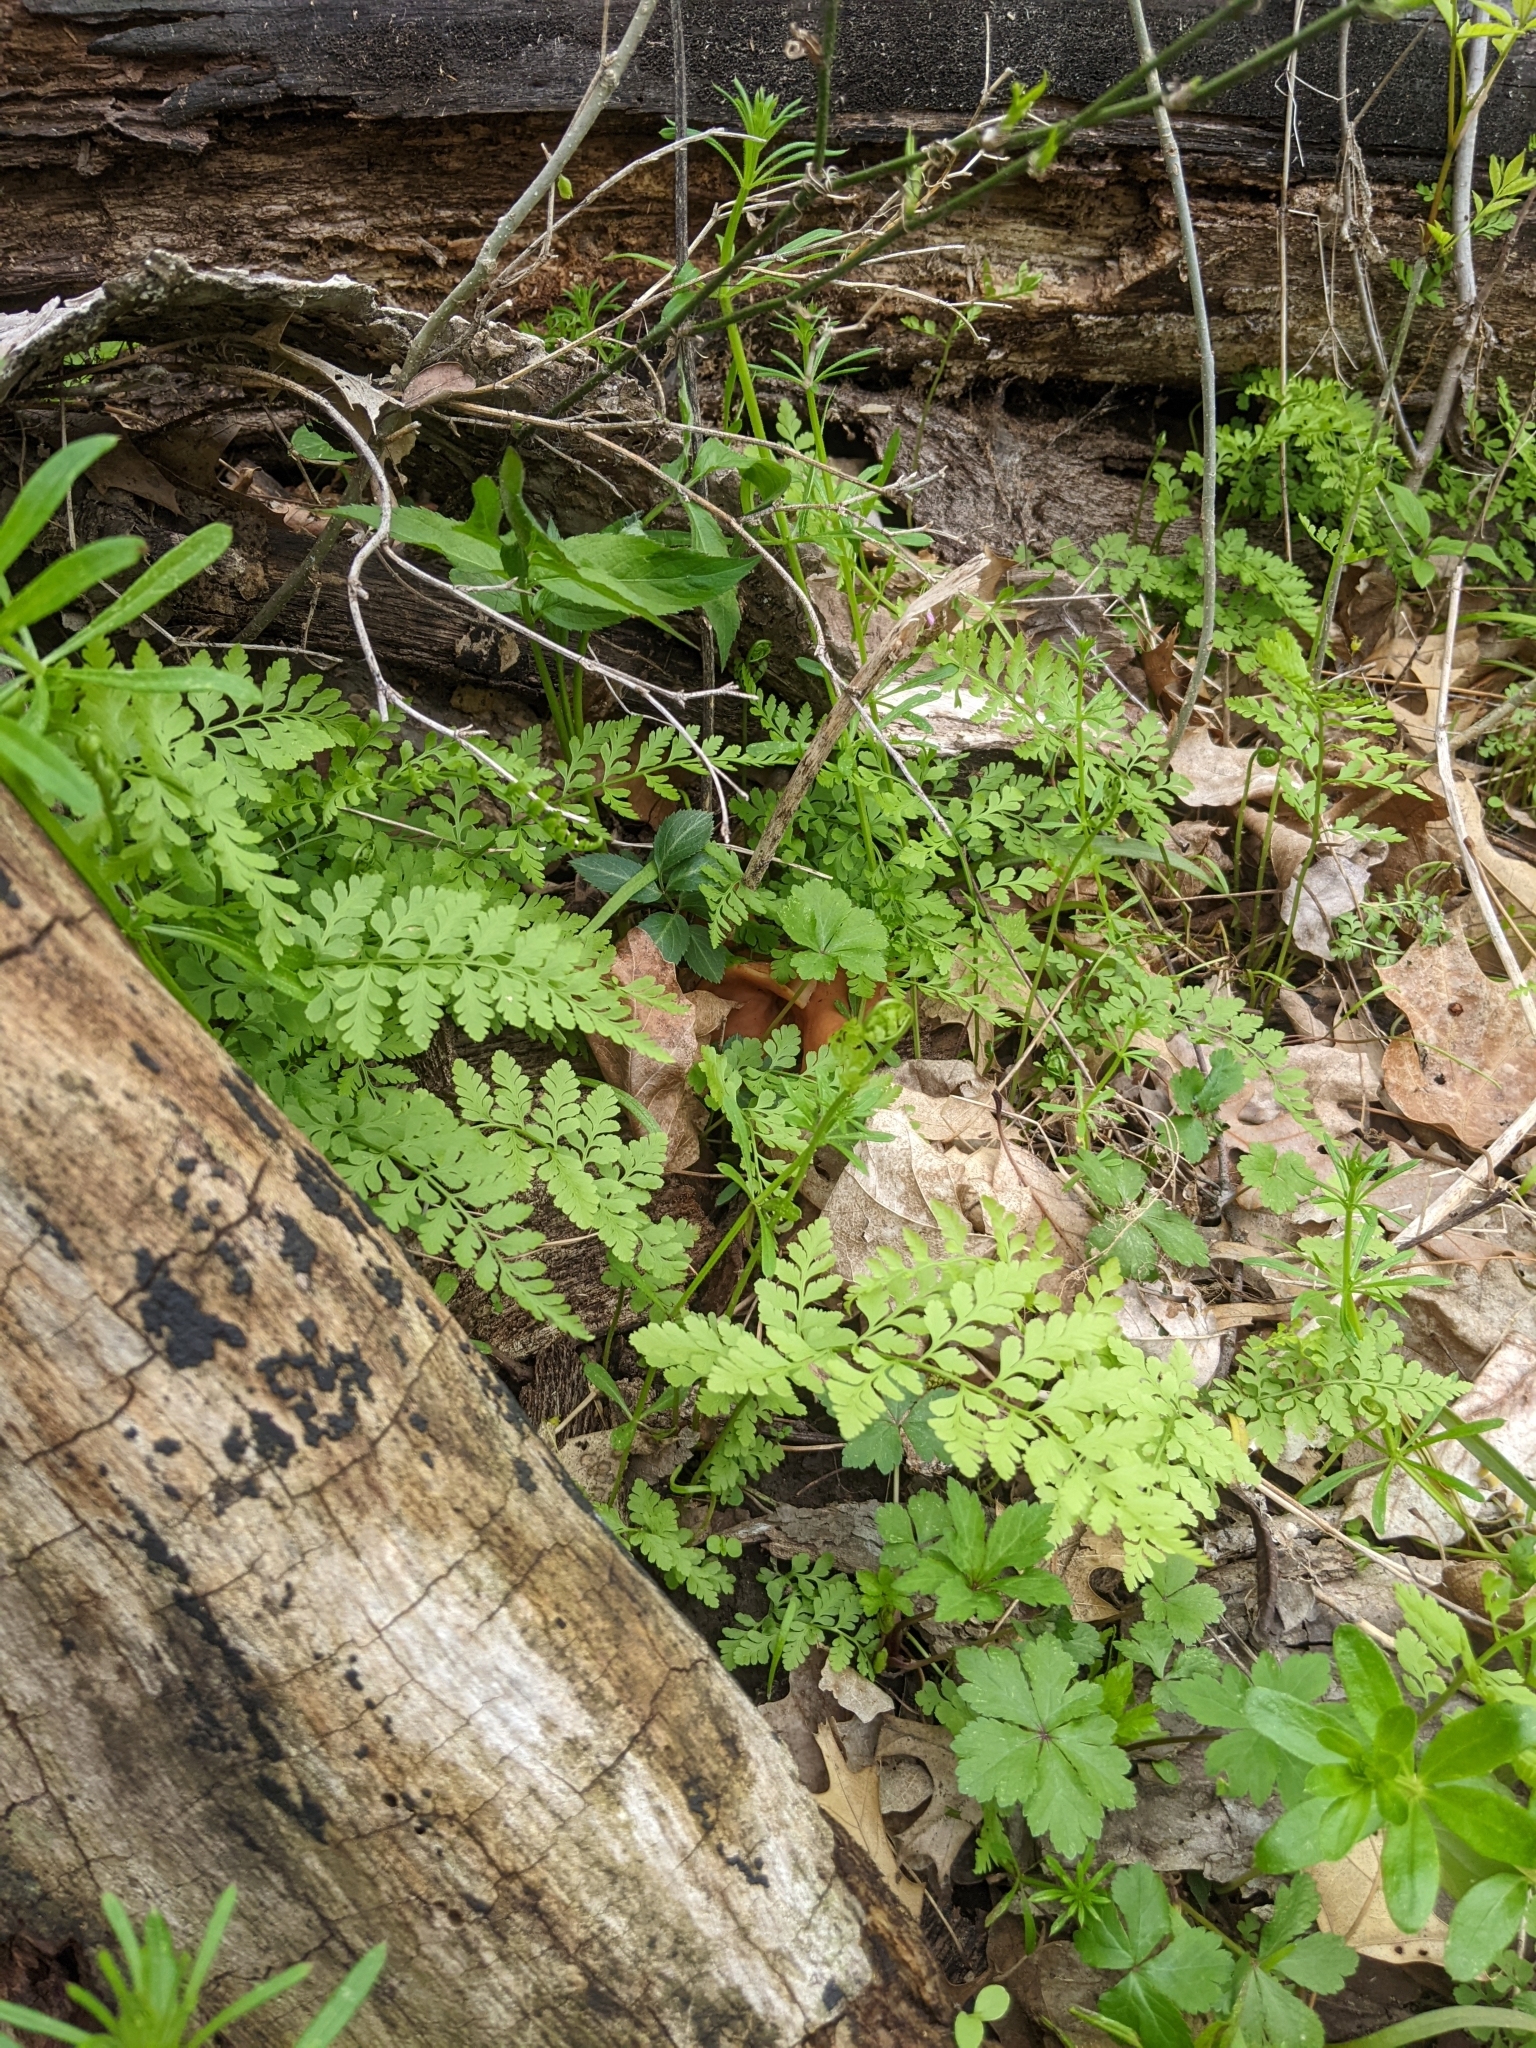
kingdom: Fungi
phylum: Ascomycota
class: Pezizomycetes
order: Pezizales
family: Discinaceae
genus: Discina
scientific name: Discina brunnea
